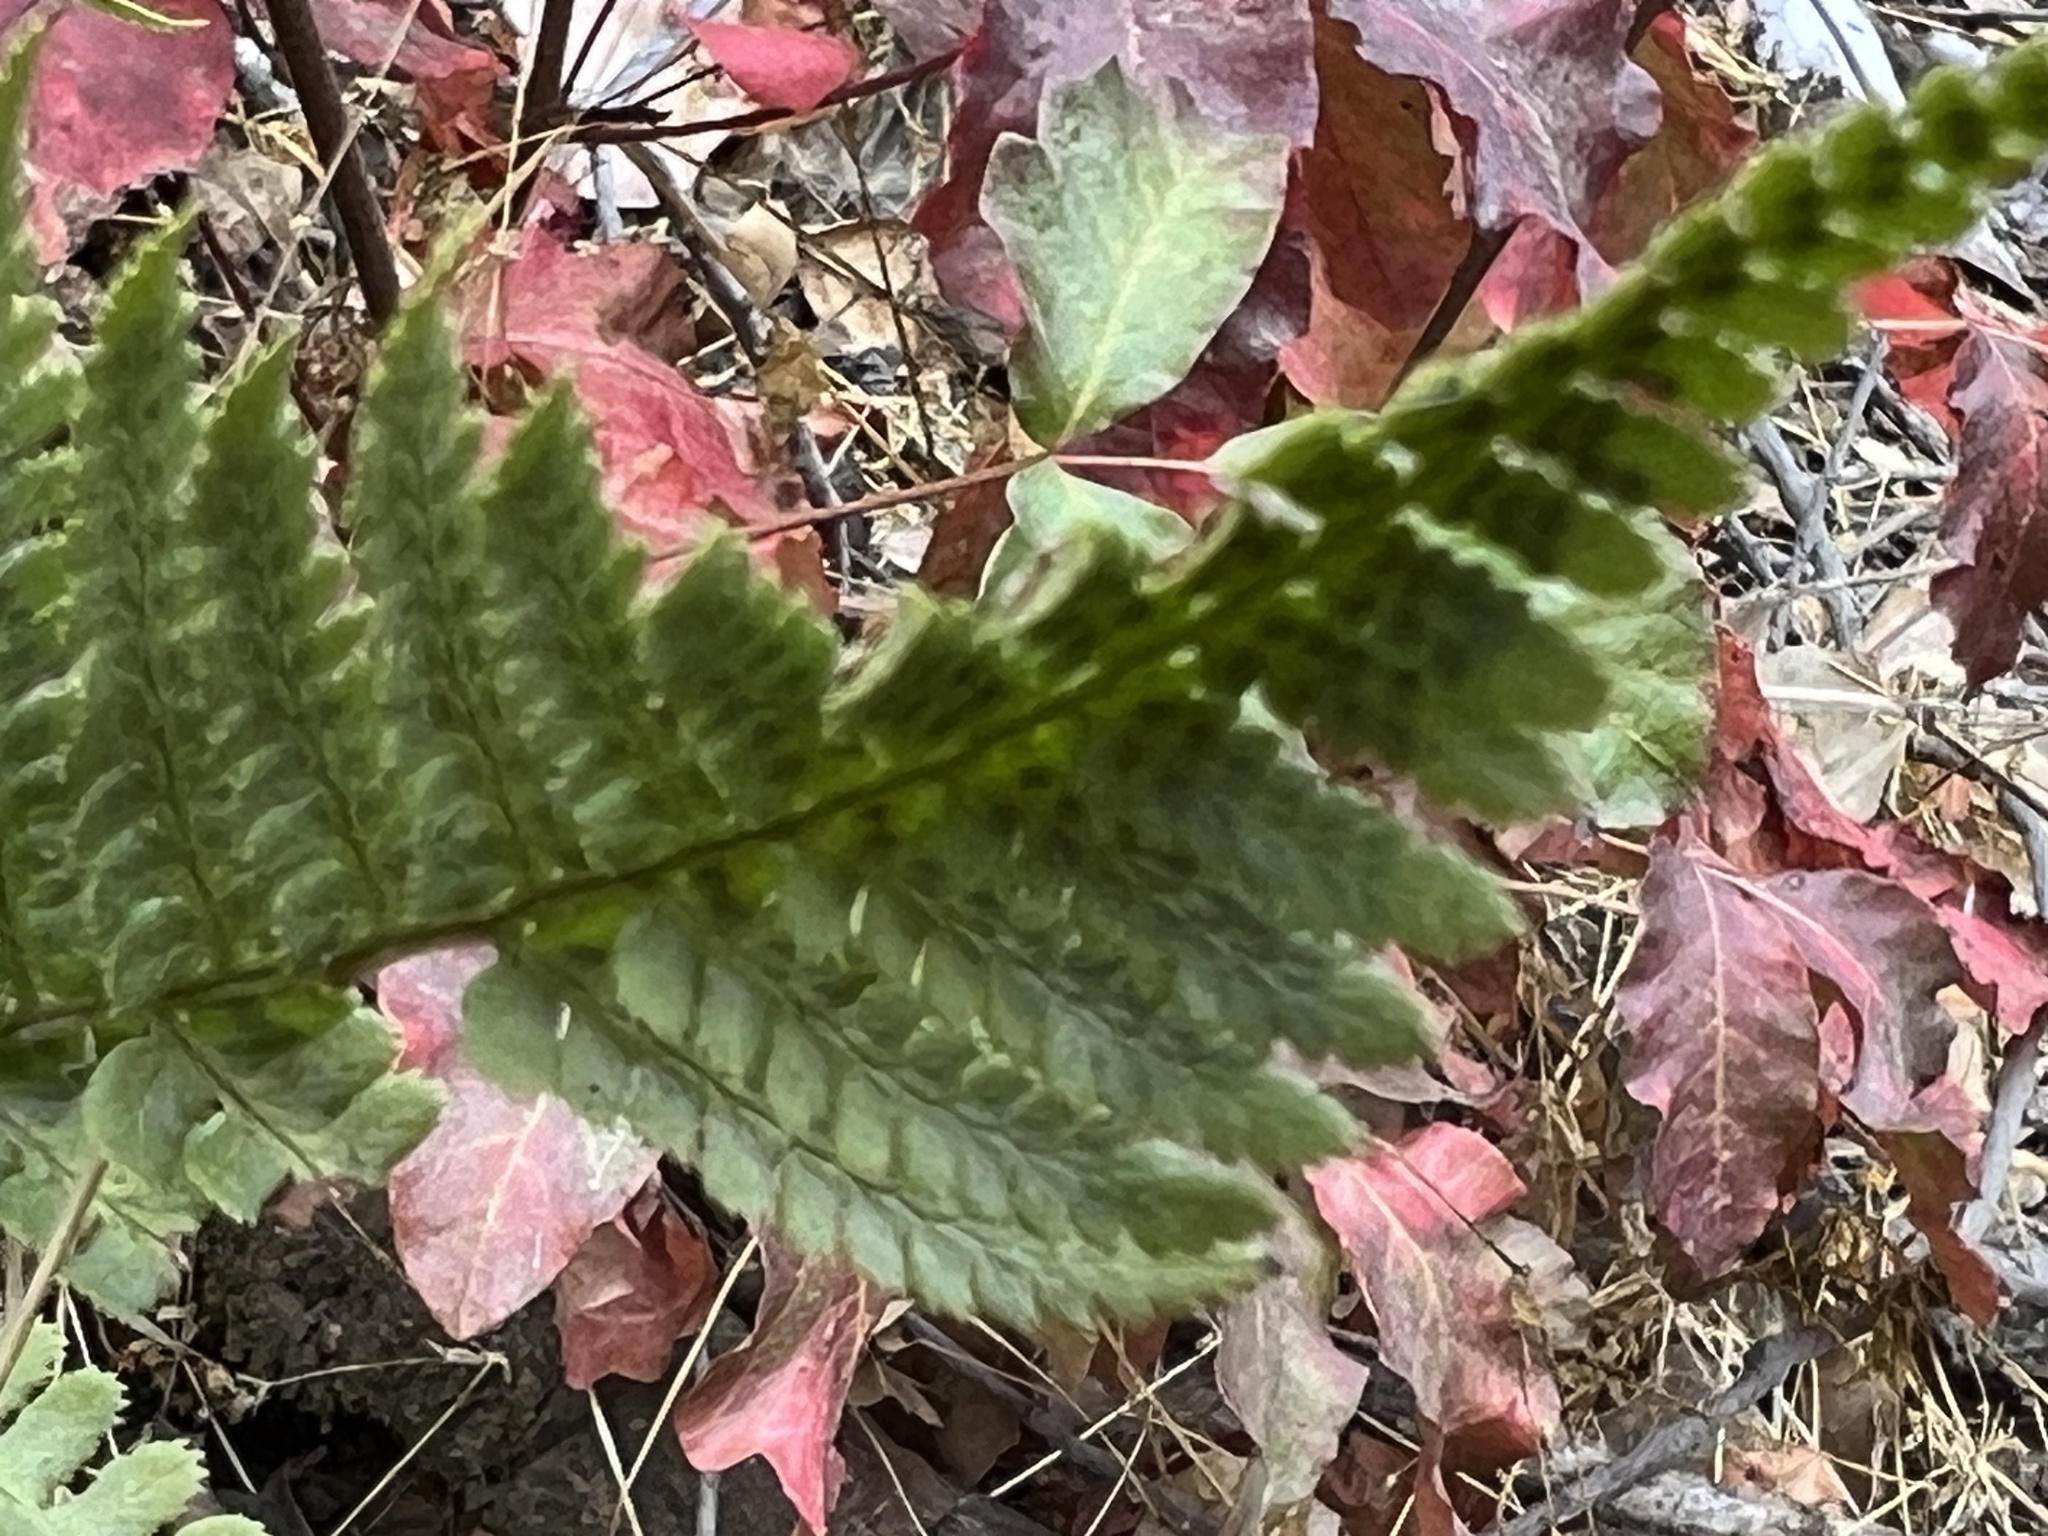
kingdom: Plantae
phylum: Tracheophyta
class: Polypodiopsida
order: Polypodiales
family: Dryopteridaceae
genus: Dryopteris
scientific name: Dryopteris arguta
